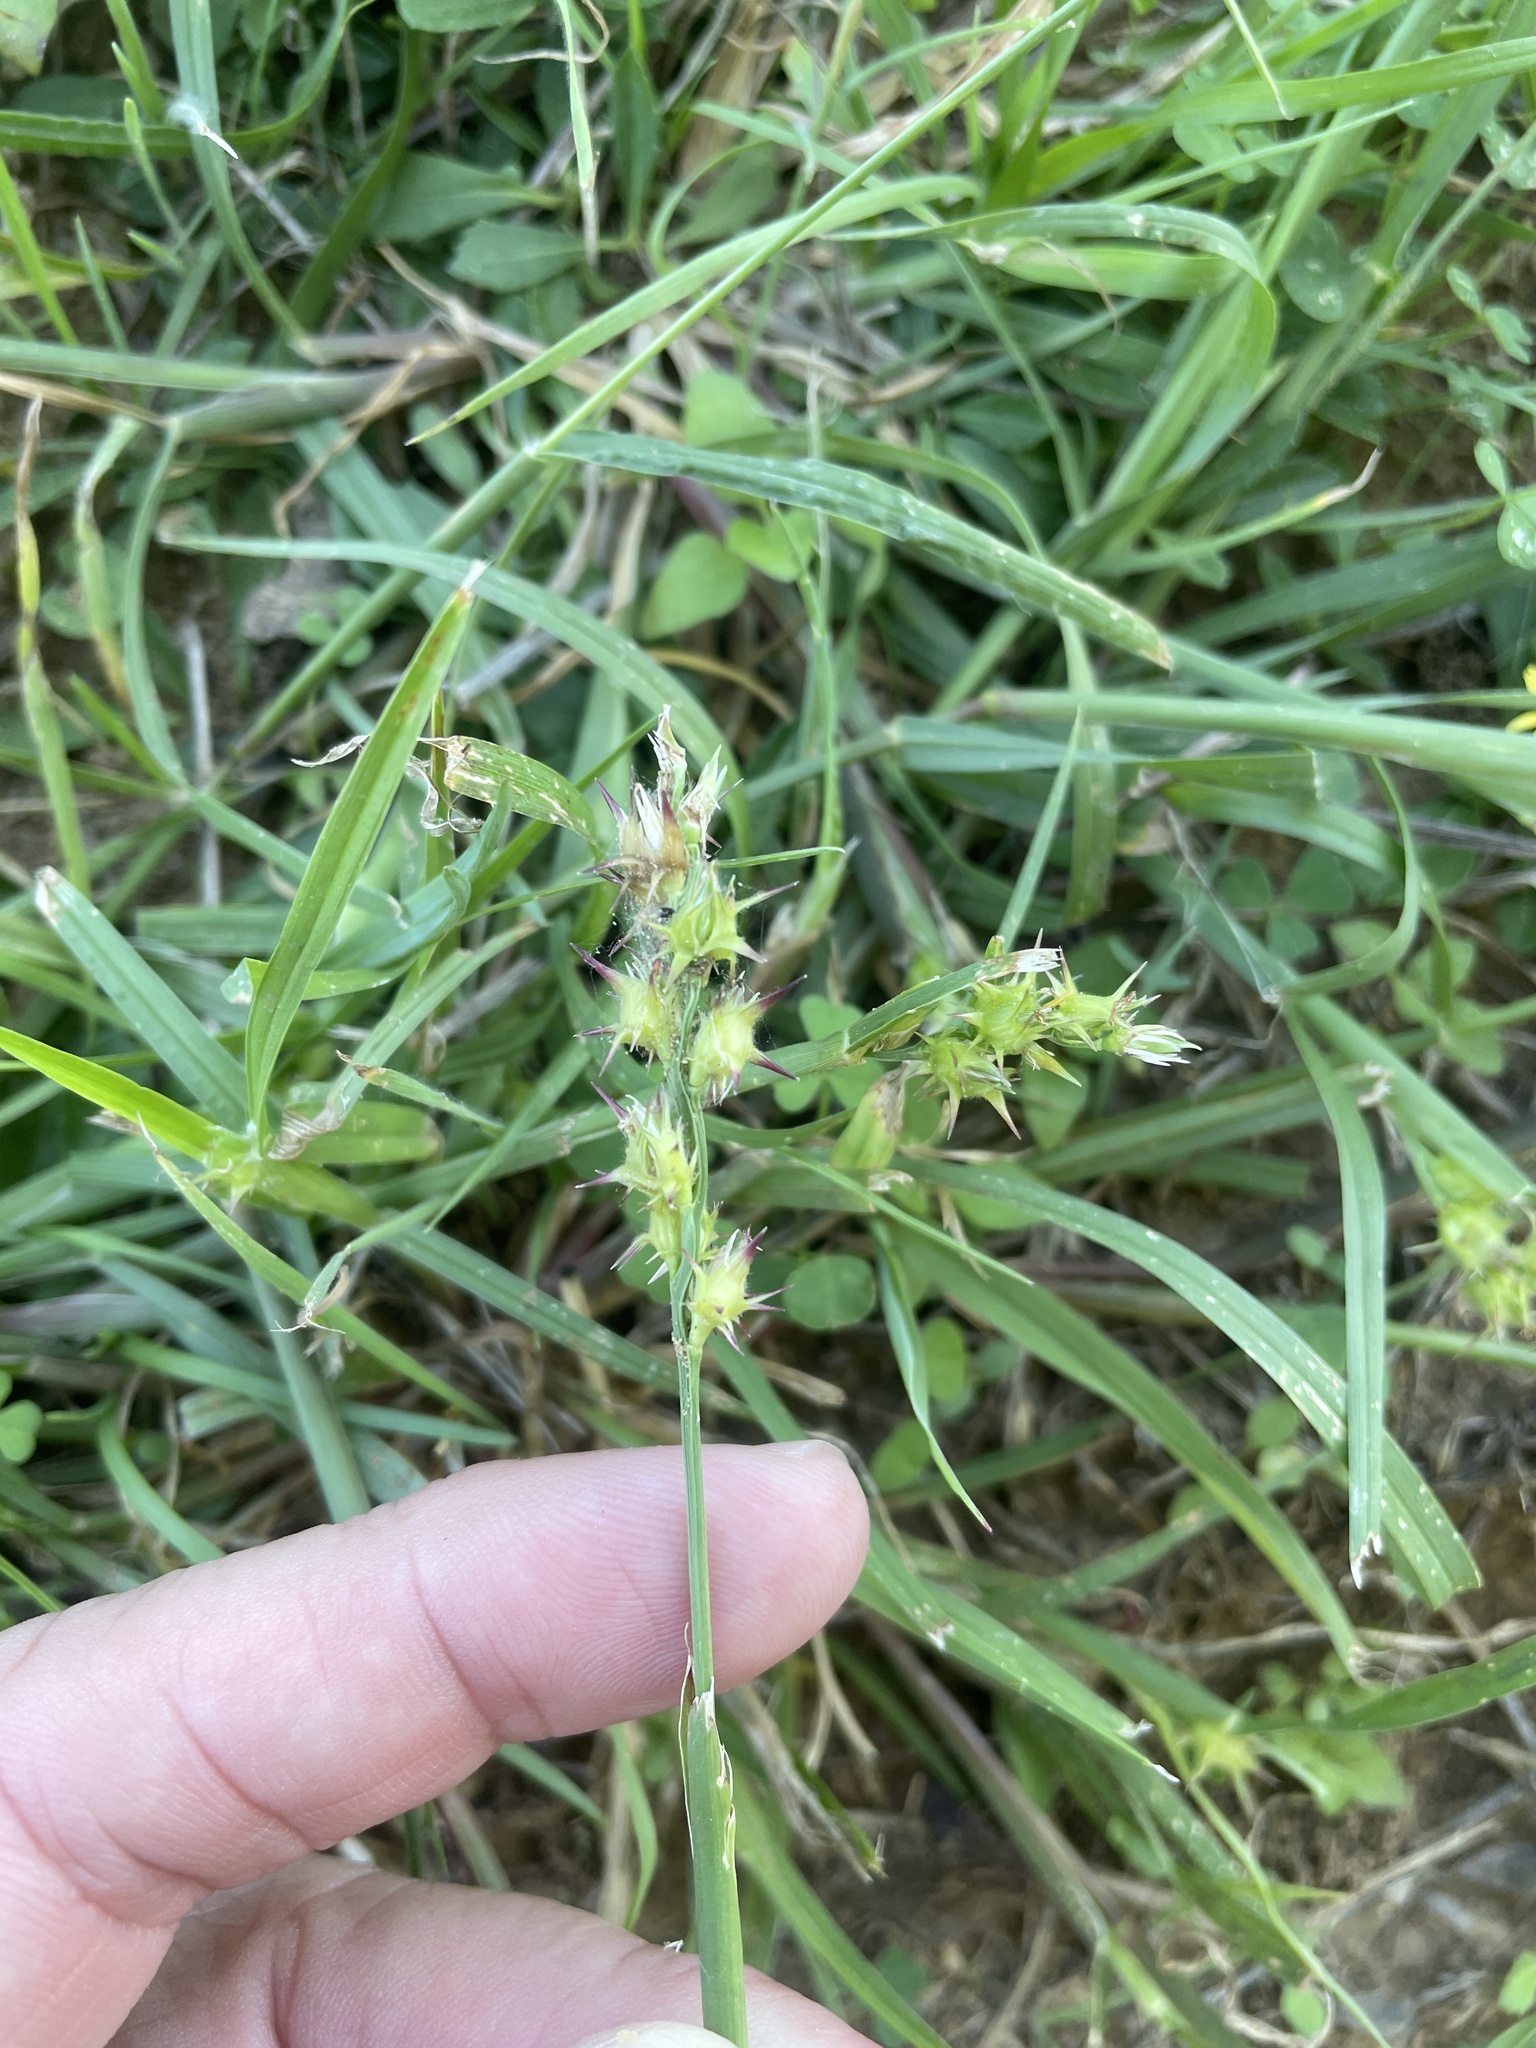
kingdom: Plantae
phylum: Tracheophyta
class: Liliopsida
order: Poales
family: Poaceae
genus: Cenchrus
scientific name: Cenchrus spinifex
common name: Coast sandbur
